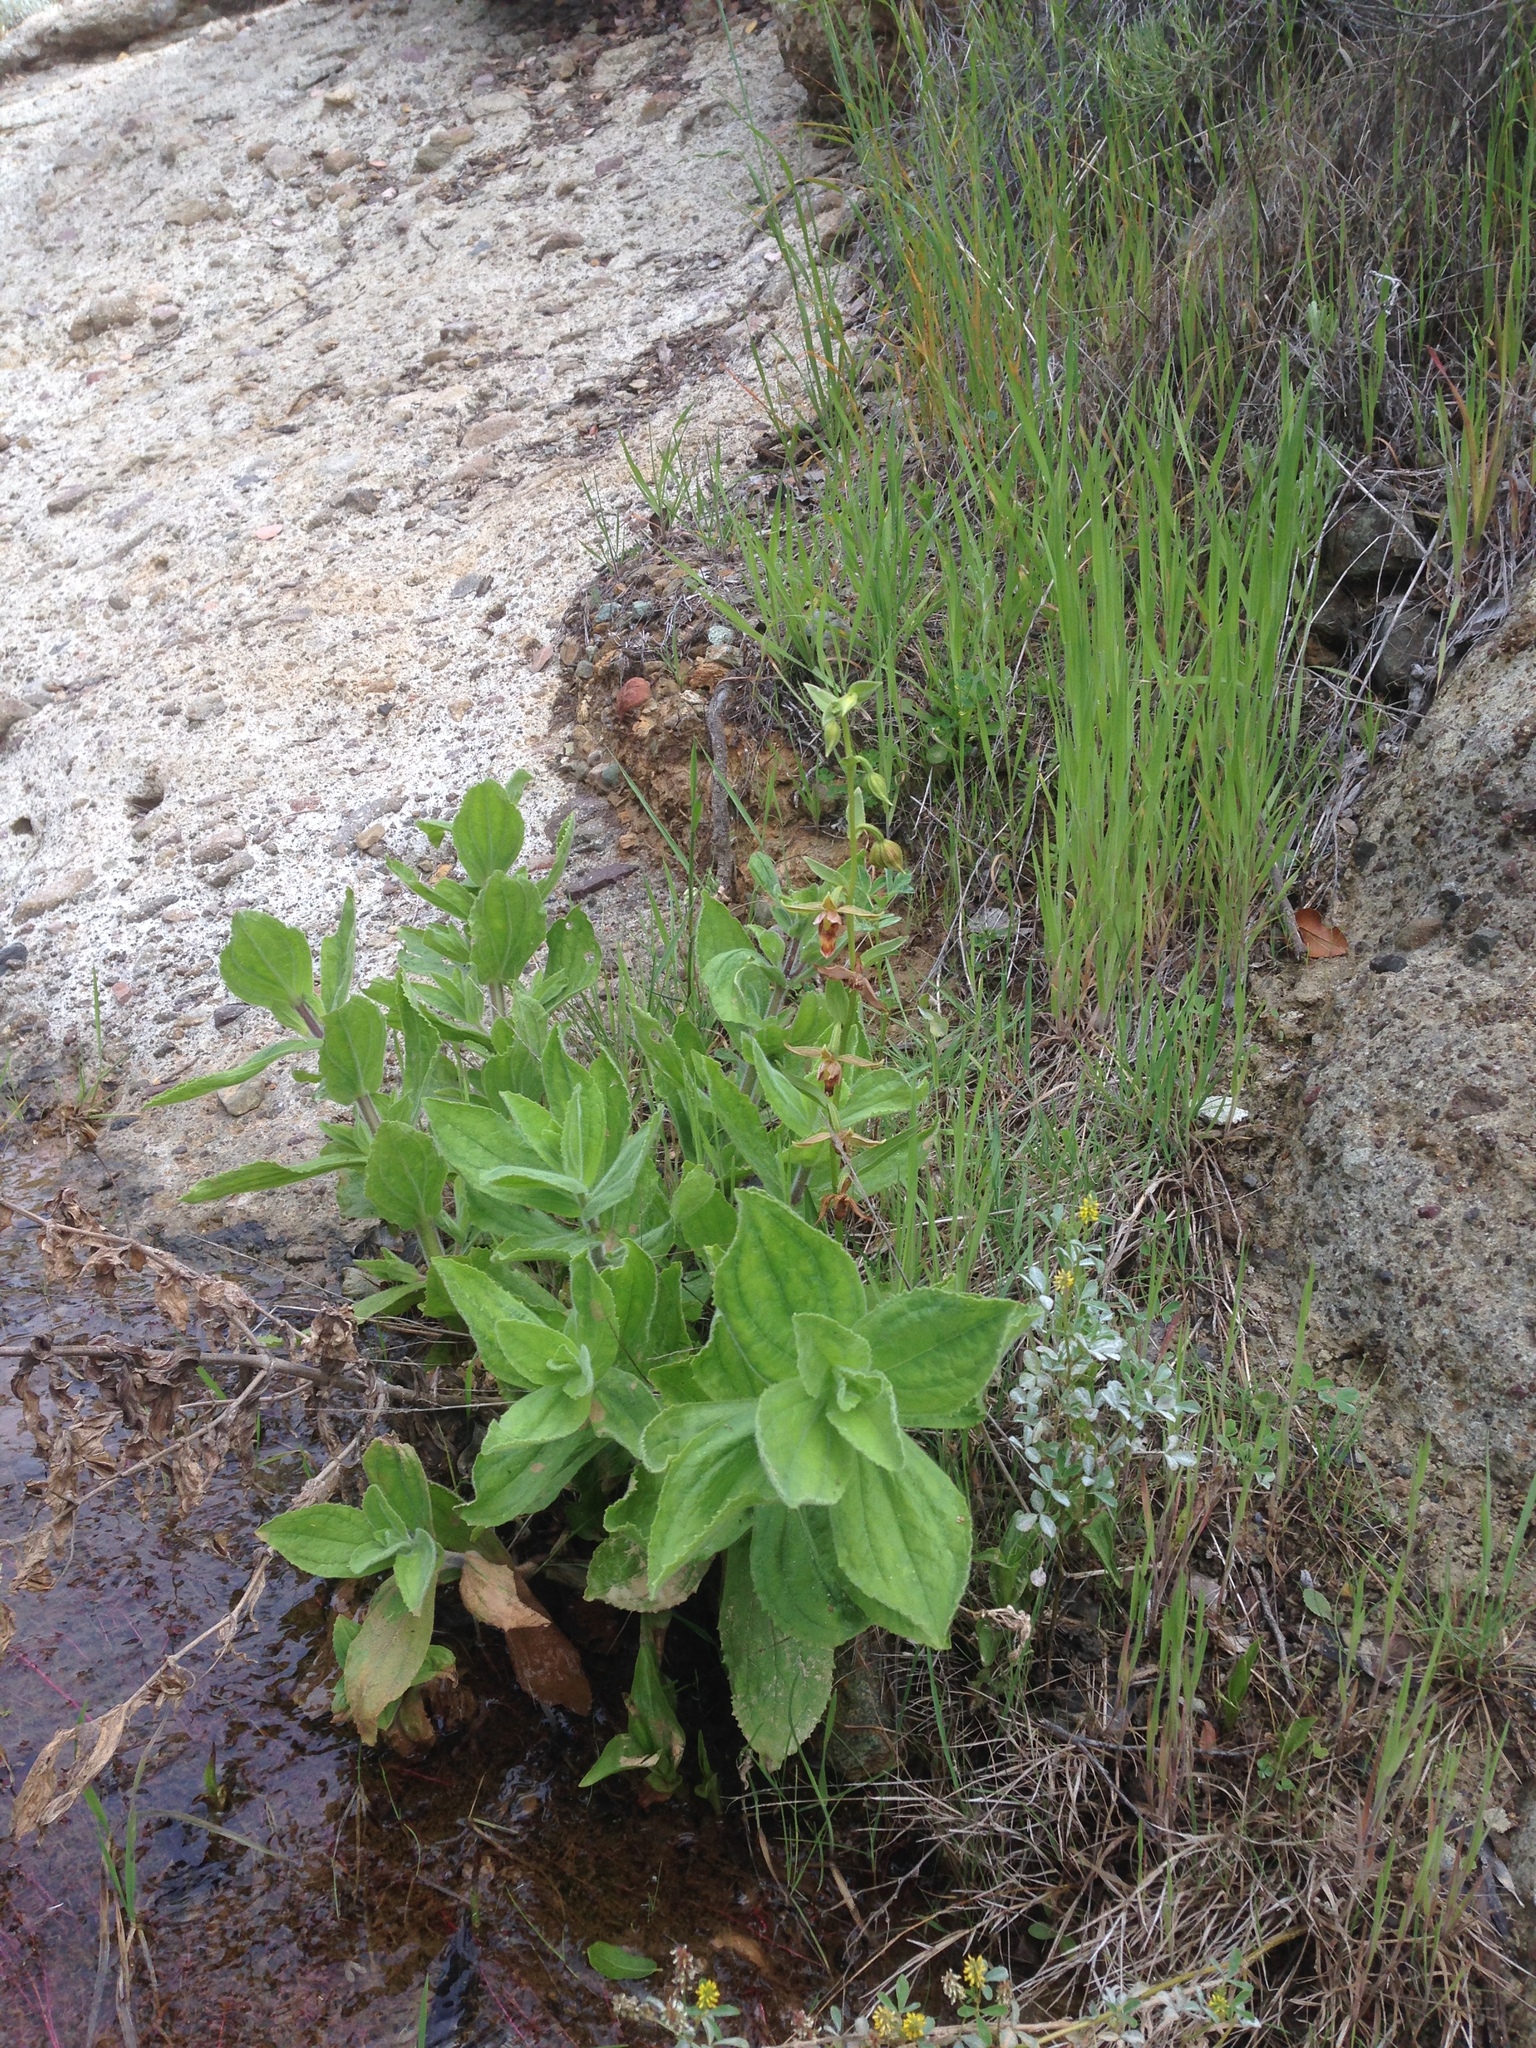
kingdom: Plantae
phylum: Tracheophyta
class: Magnoliopsida
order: Lamiales
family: Phrymaceae
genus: Erythranthe
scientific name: Erythranthe cardinalis
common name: Scarlet monkey-flower
